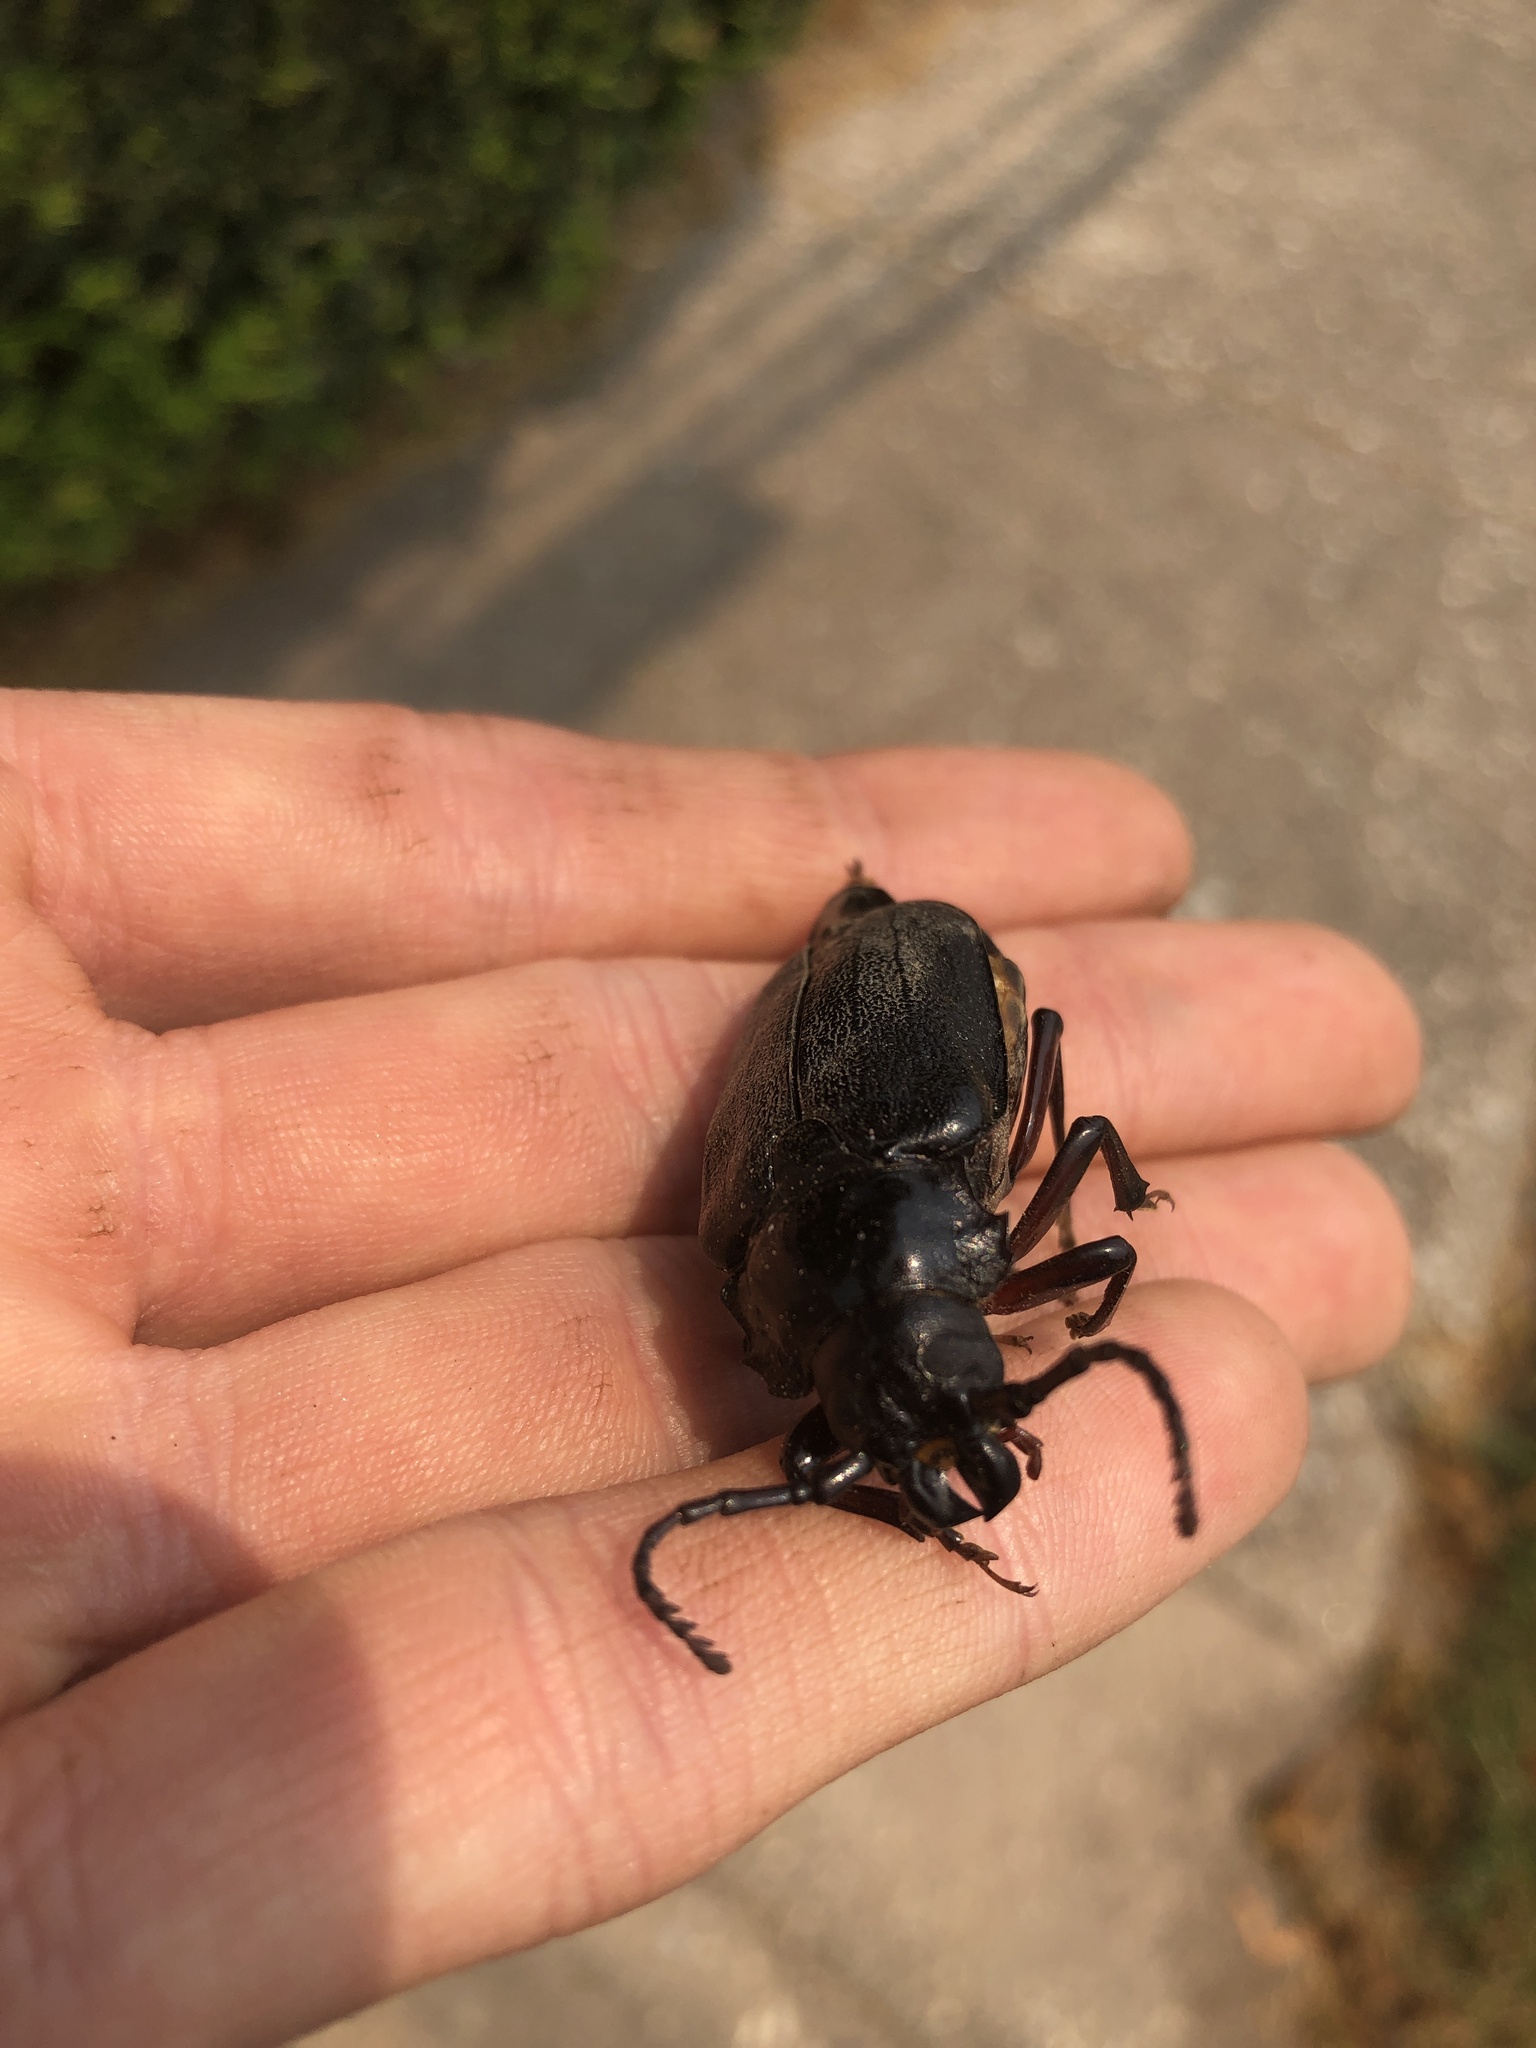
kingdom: Animalia
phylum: Arthropoda
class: Insecta
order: Coleoptera
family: Cerambycidae
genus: Prionus
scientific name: Prionus laticollis
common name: Broad necked prionus
